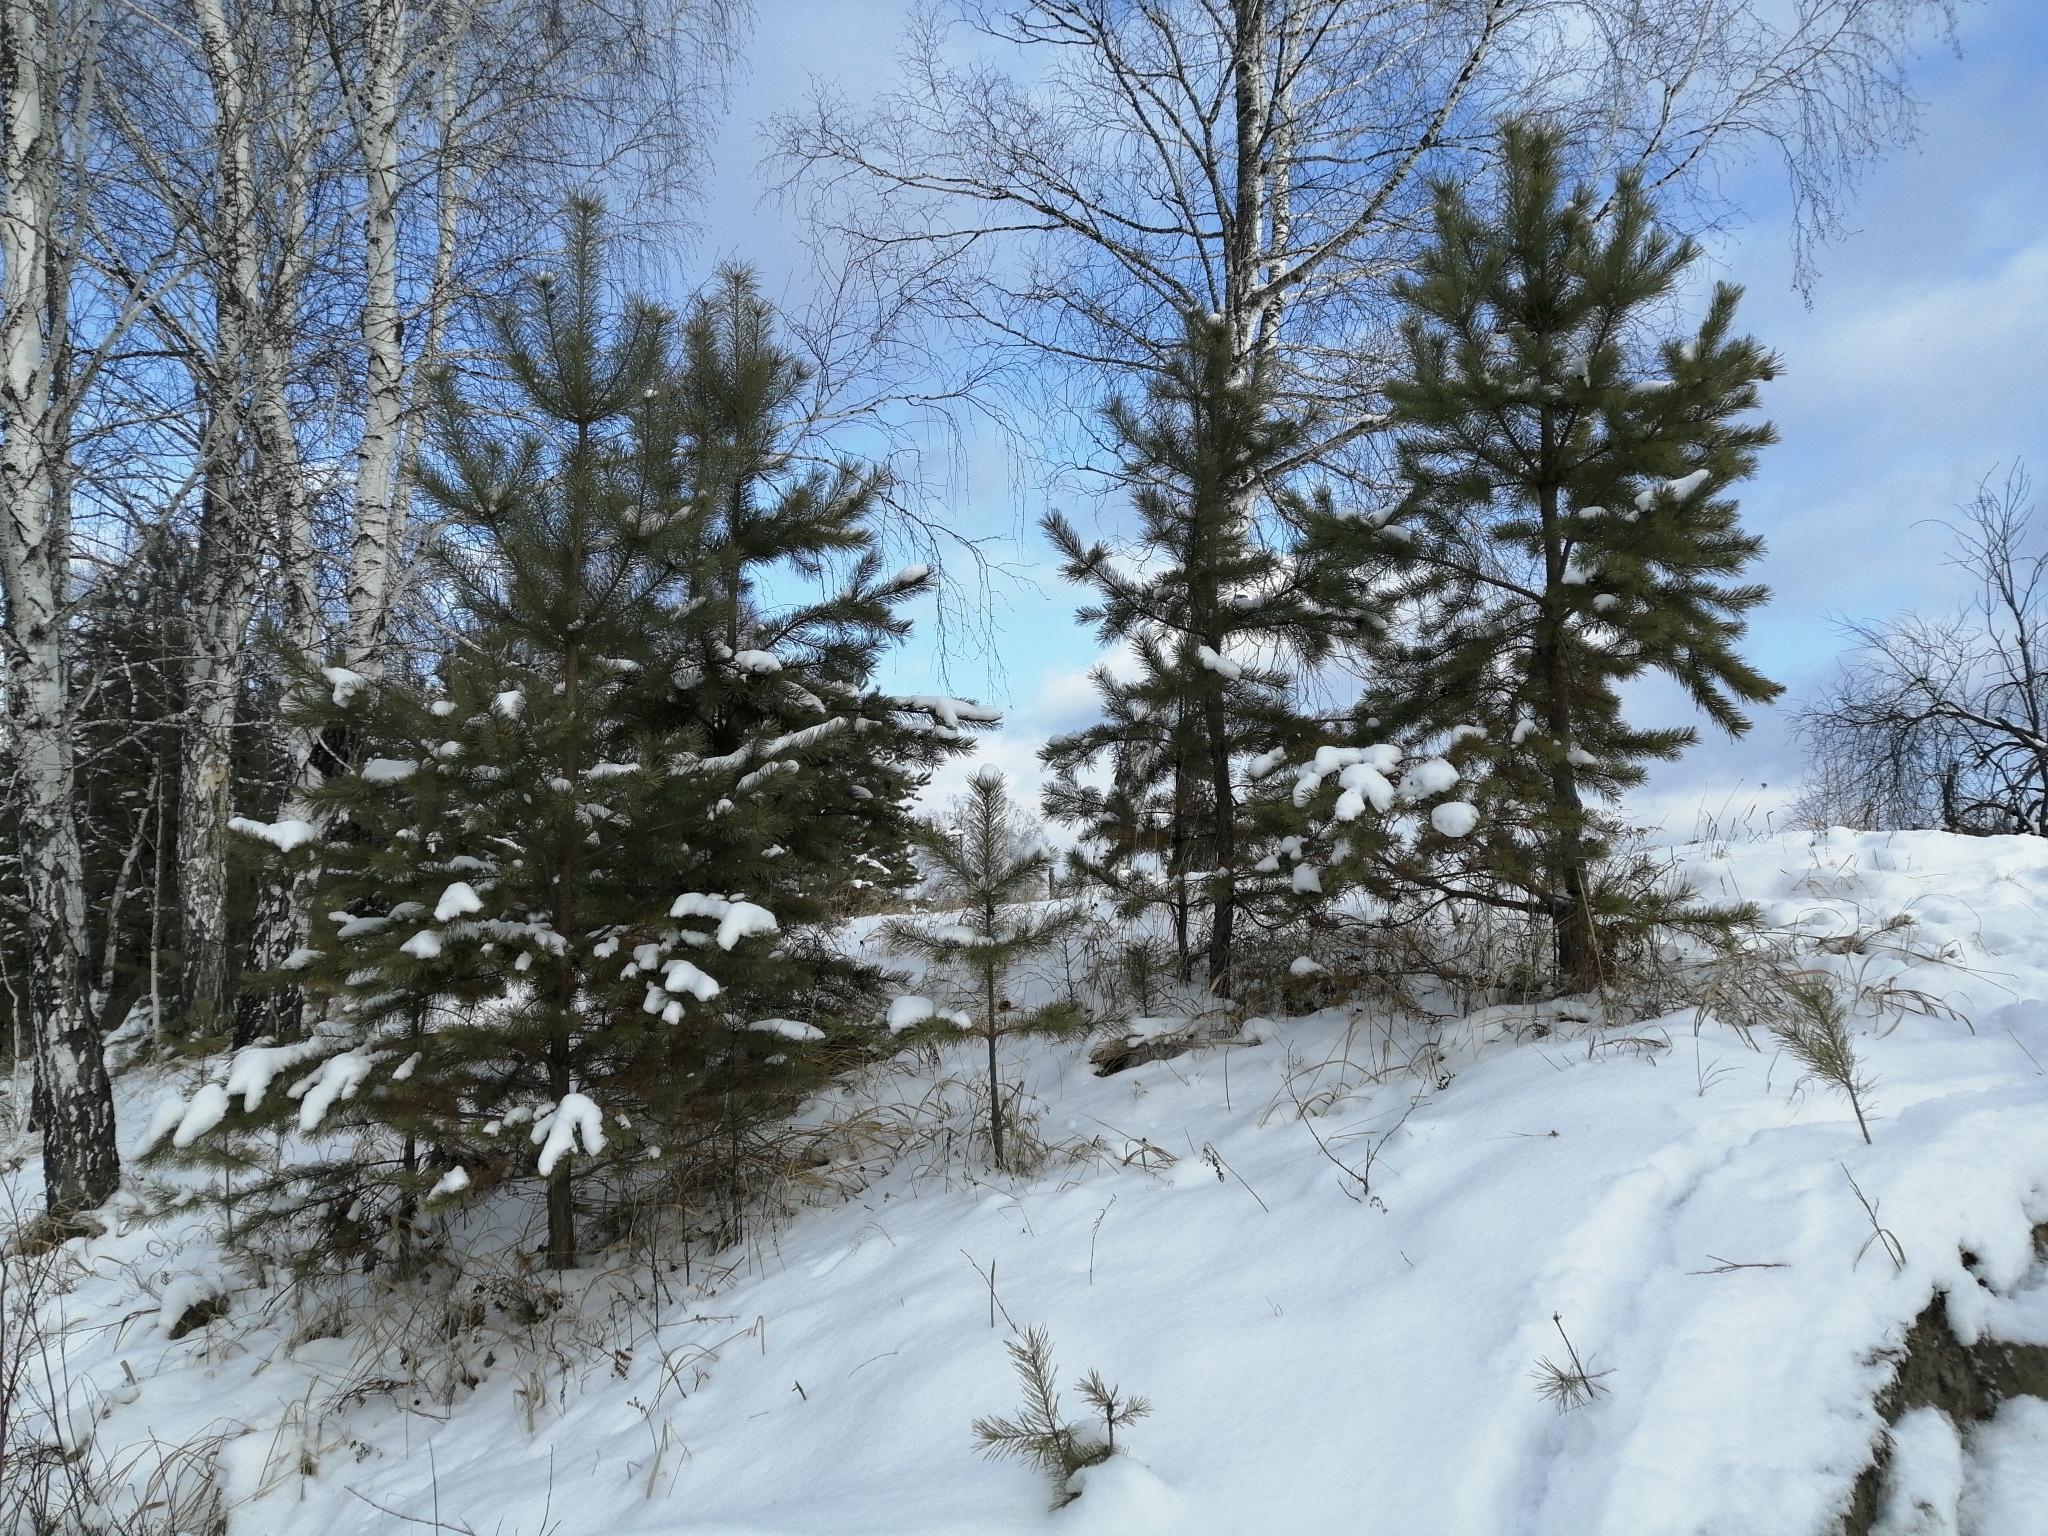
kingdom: Plantae
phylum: Tracheophyta
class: Pinopsida
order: Pinales
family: Pinaceae
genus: Pinus
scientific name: Pinus sylvestris
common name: Scots pine
